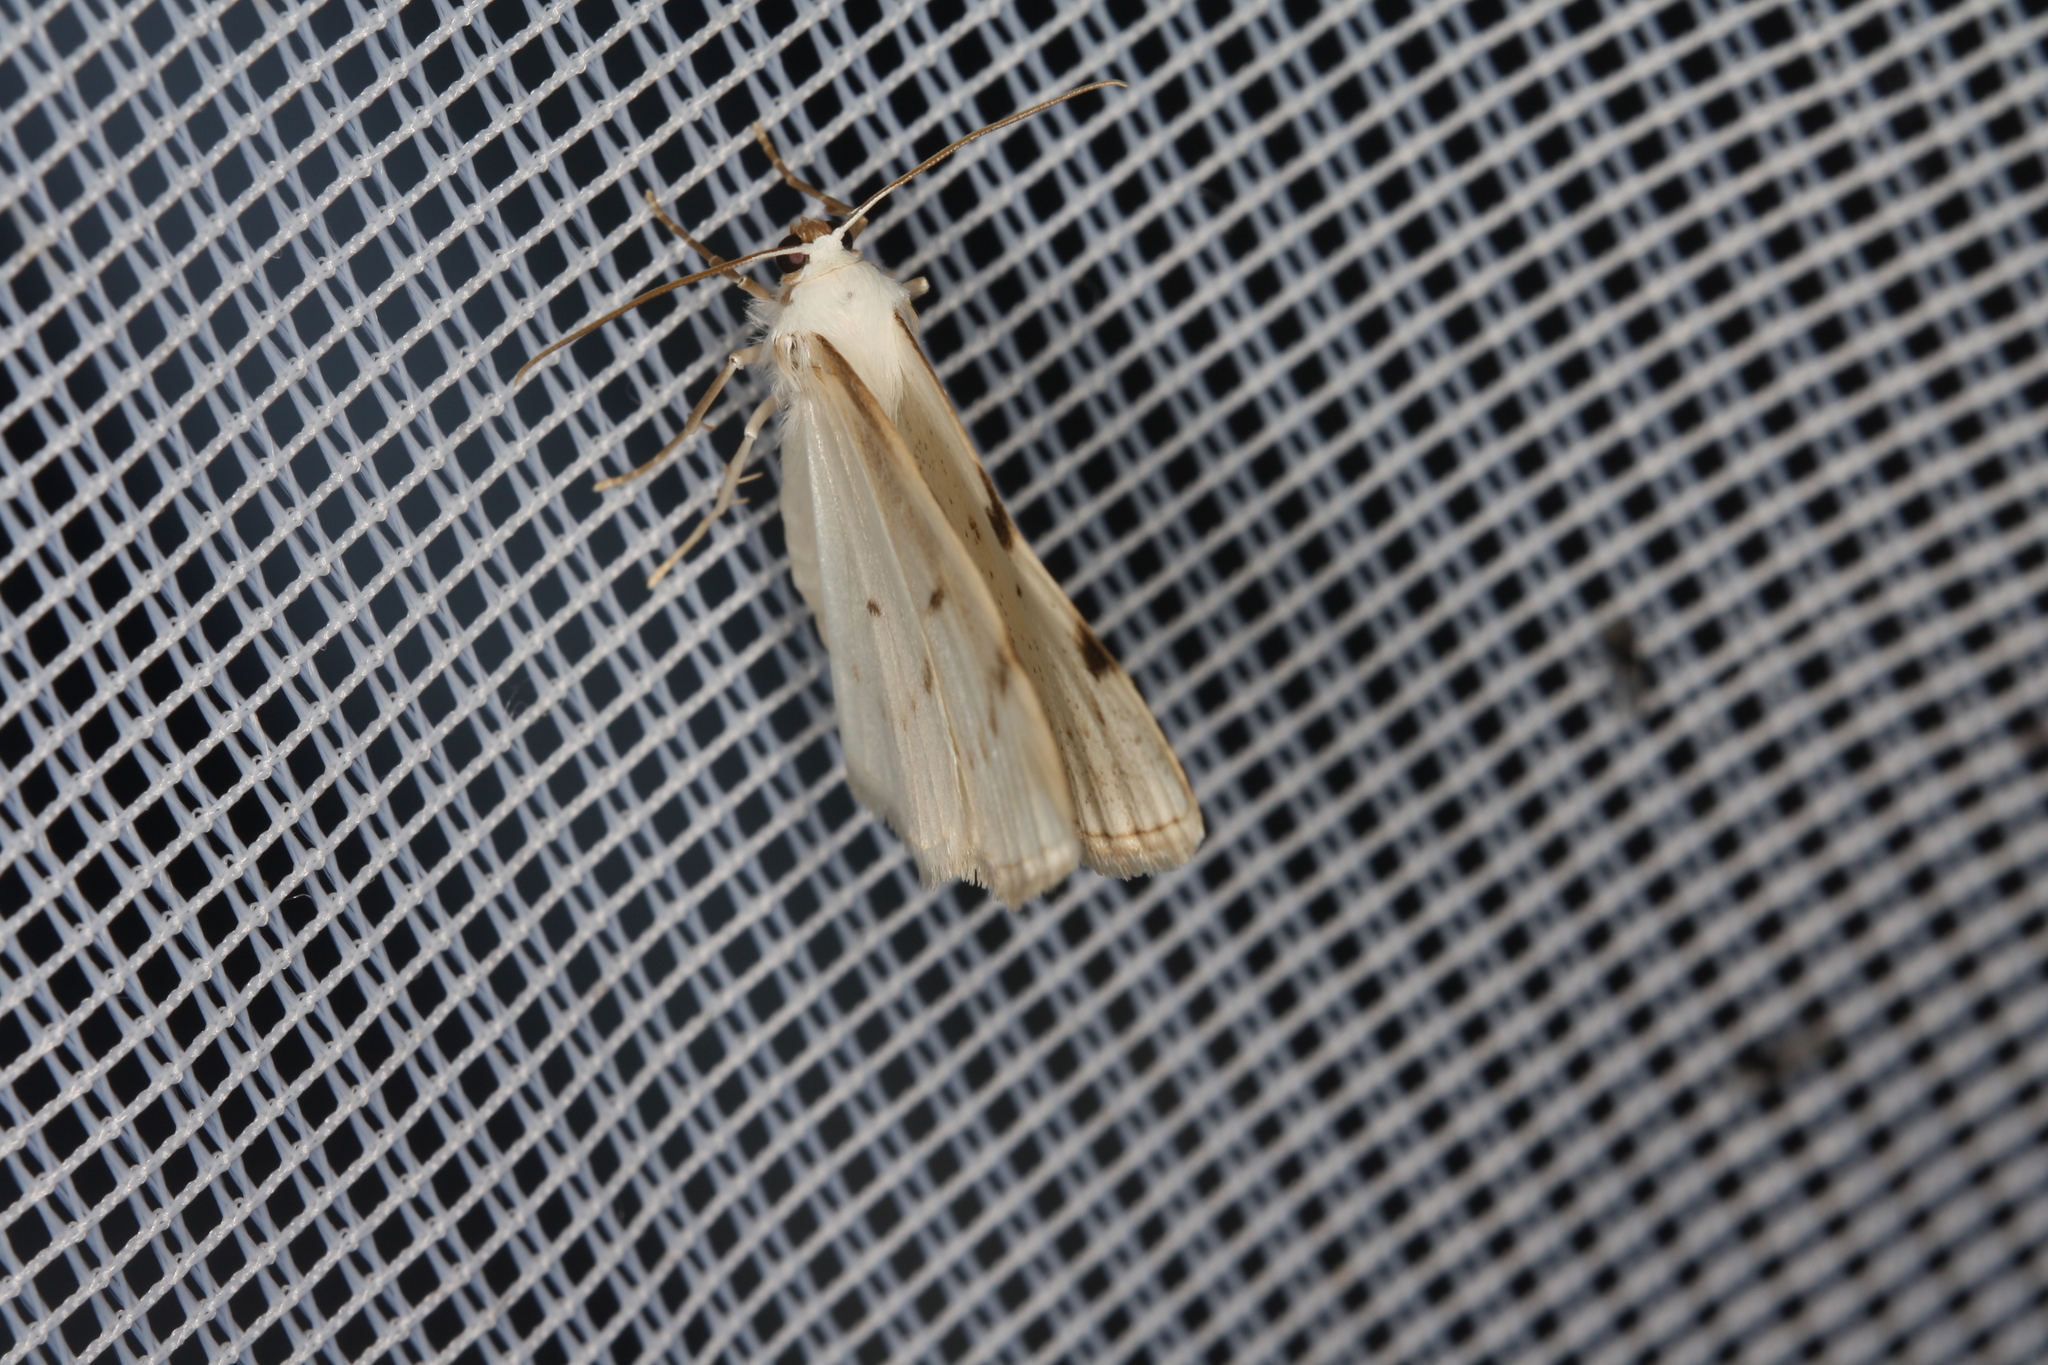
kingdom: Animalia
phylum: Arthropoda
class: Insecta
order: Lepidoptera
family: Geometridae
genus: Lomographa
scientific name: Lomographa bimaculata
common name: White-pinion spotted
